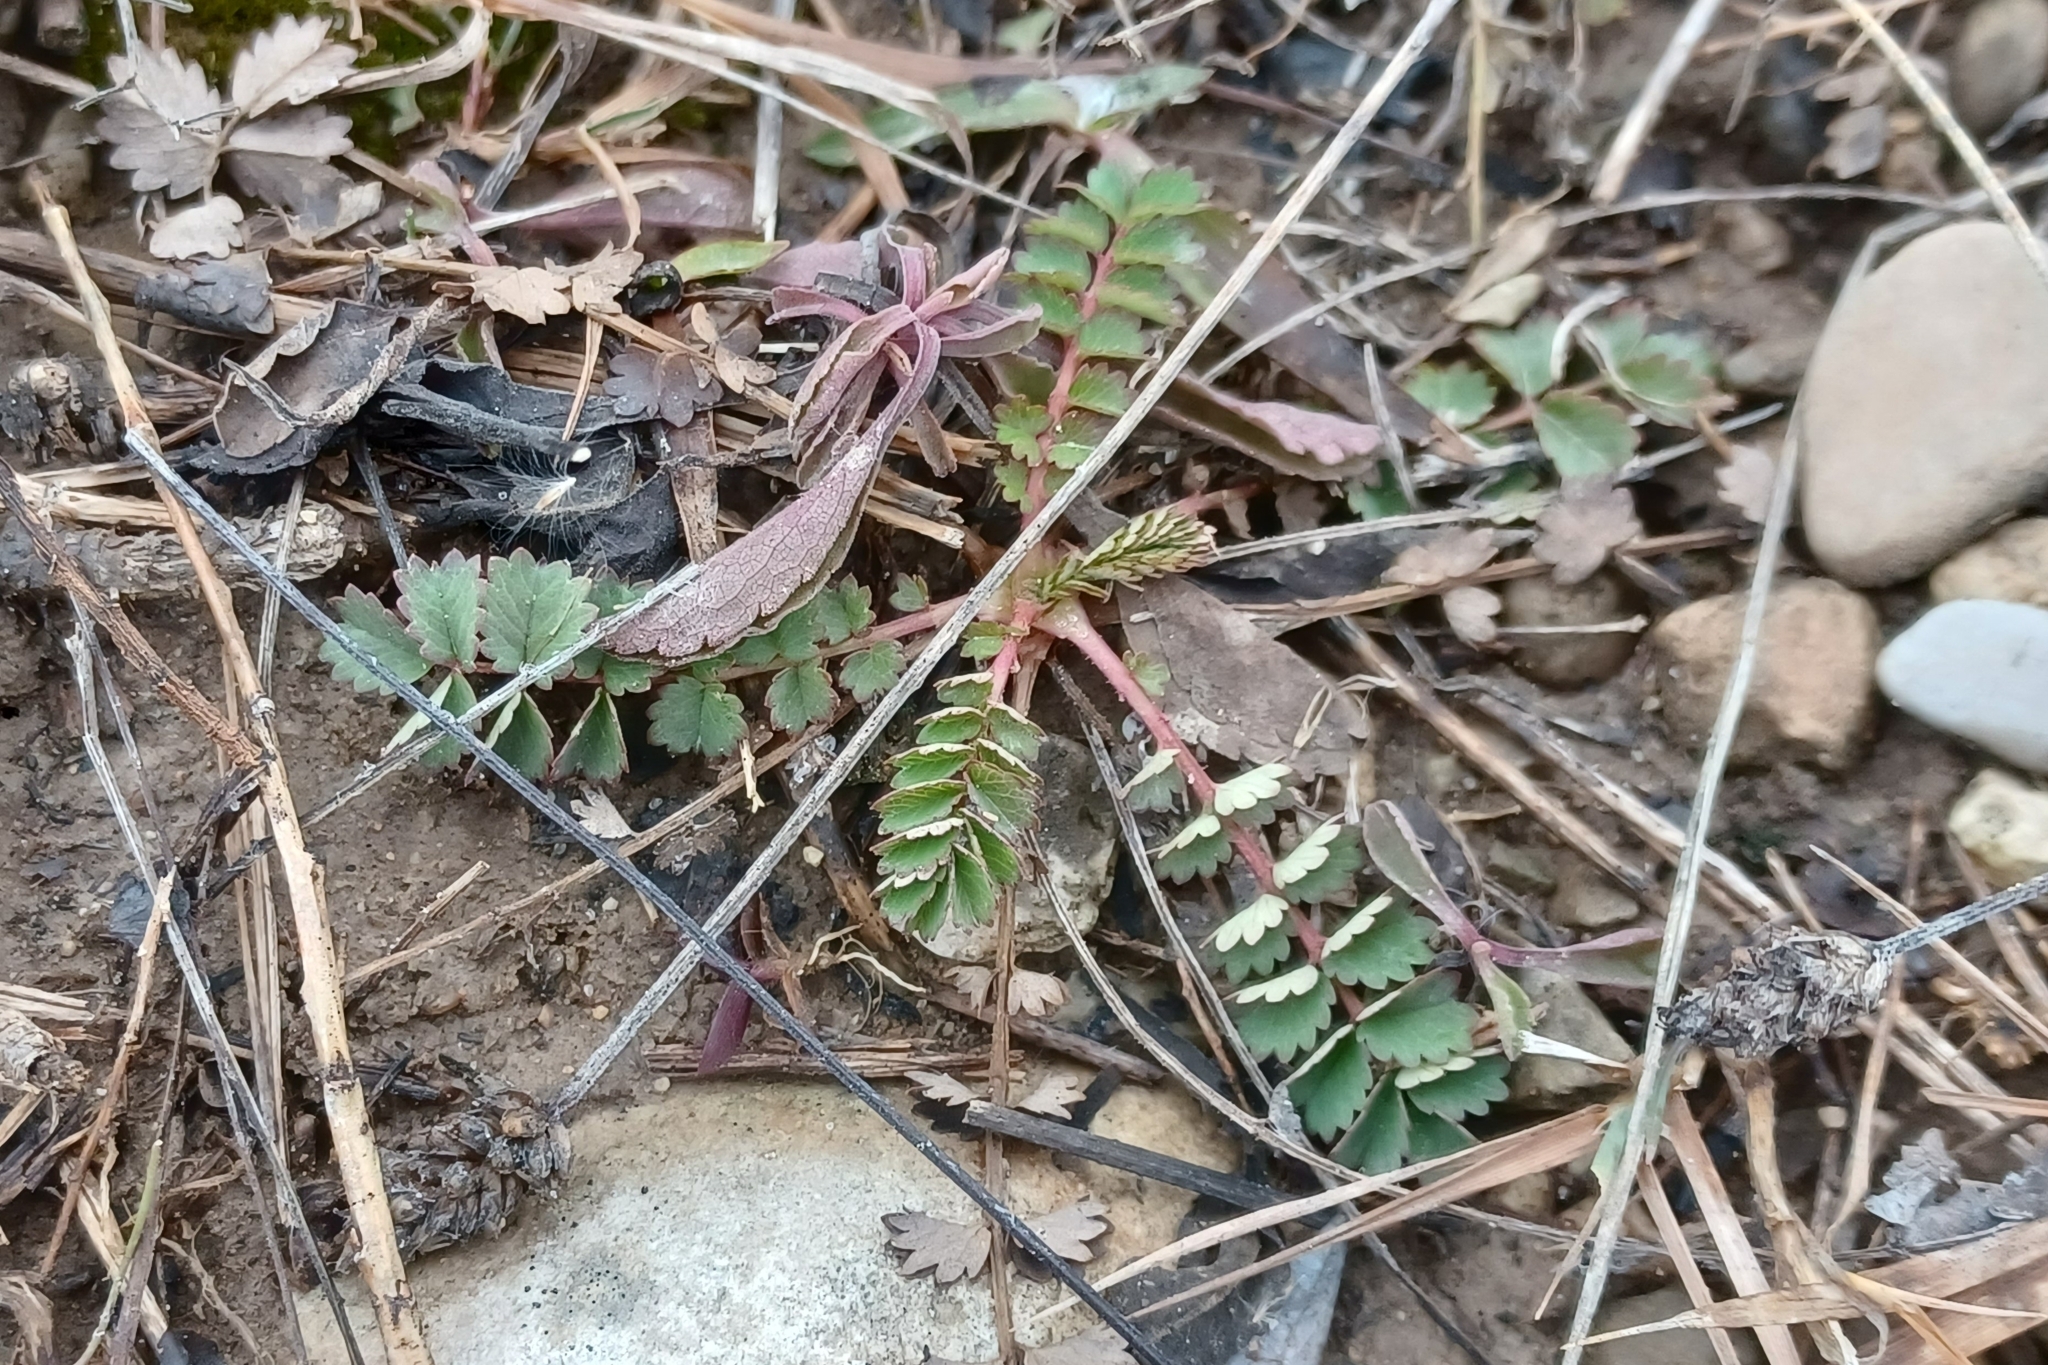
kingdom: Plantae
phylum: Tracheophyta
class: Magnoliopsida
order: Rosales
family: Rosaceae
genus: Poterium
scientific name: Poterium sanguisorba
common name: Salad burnet
